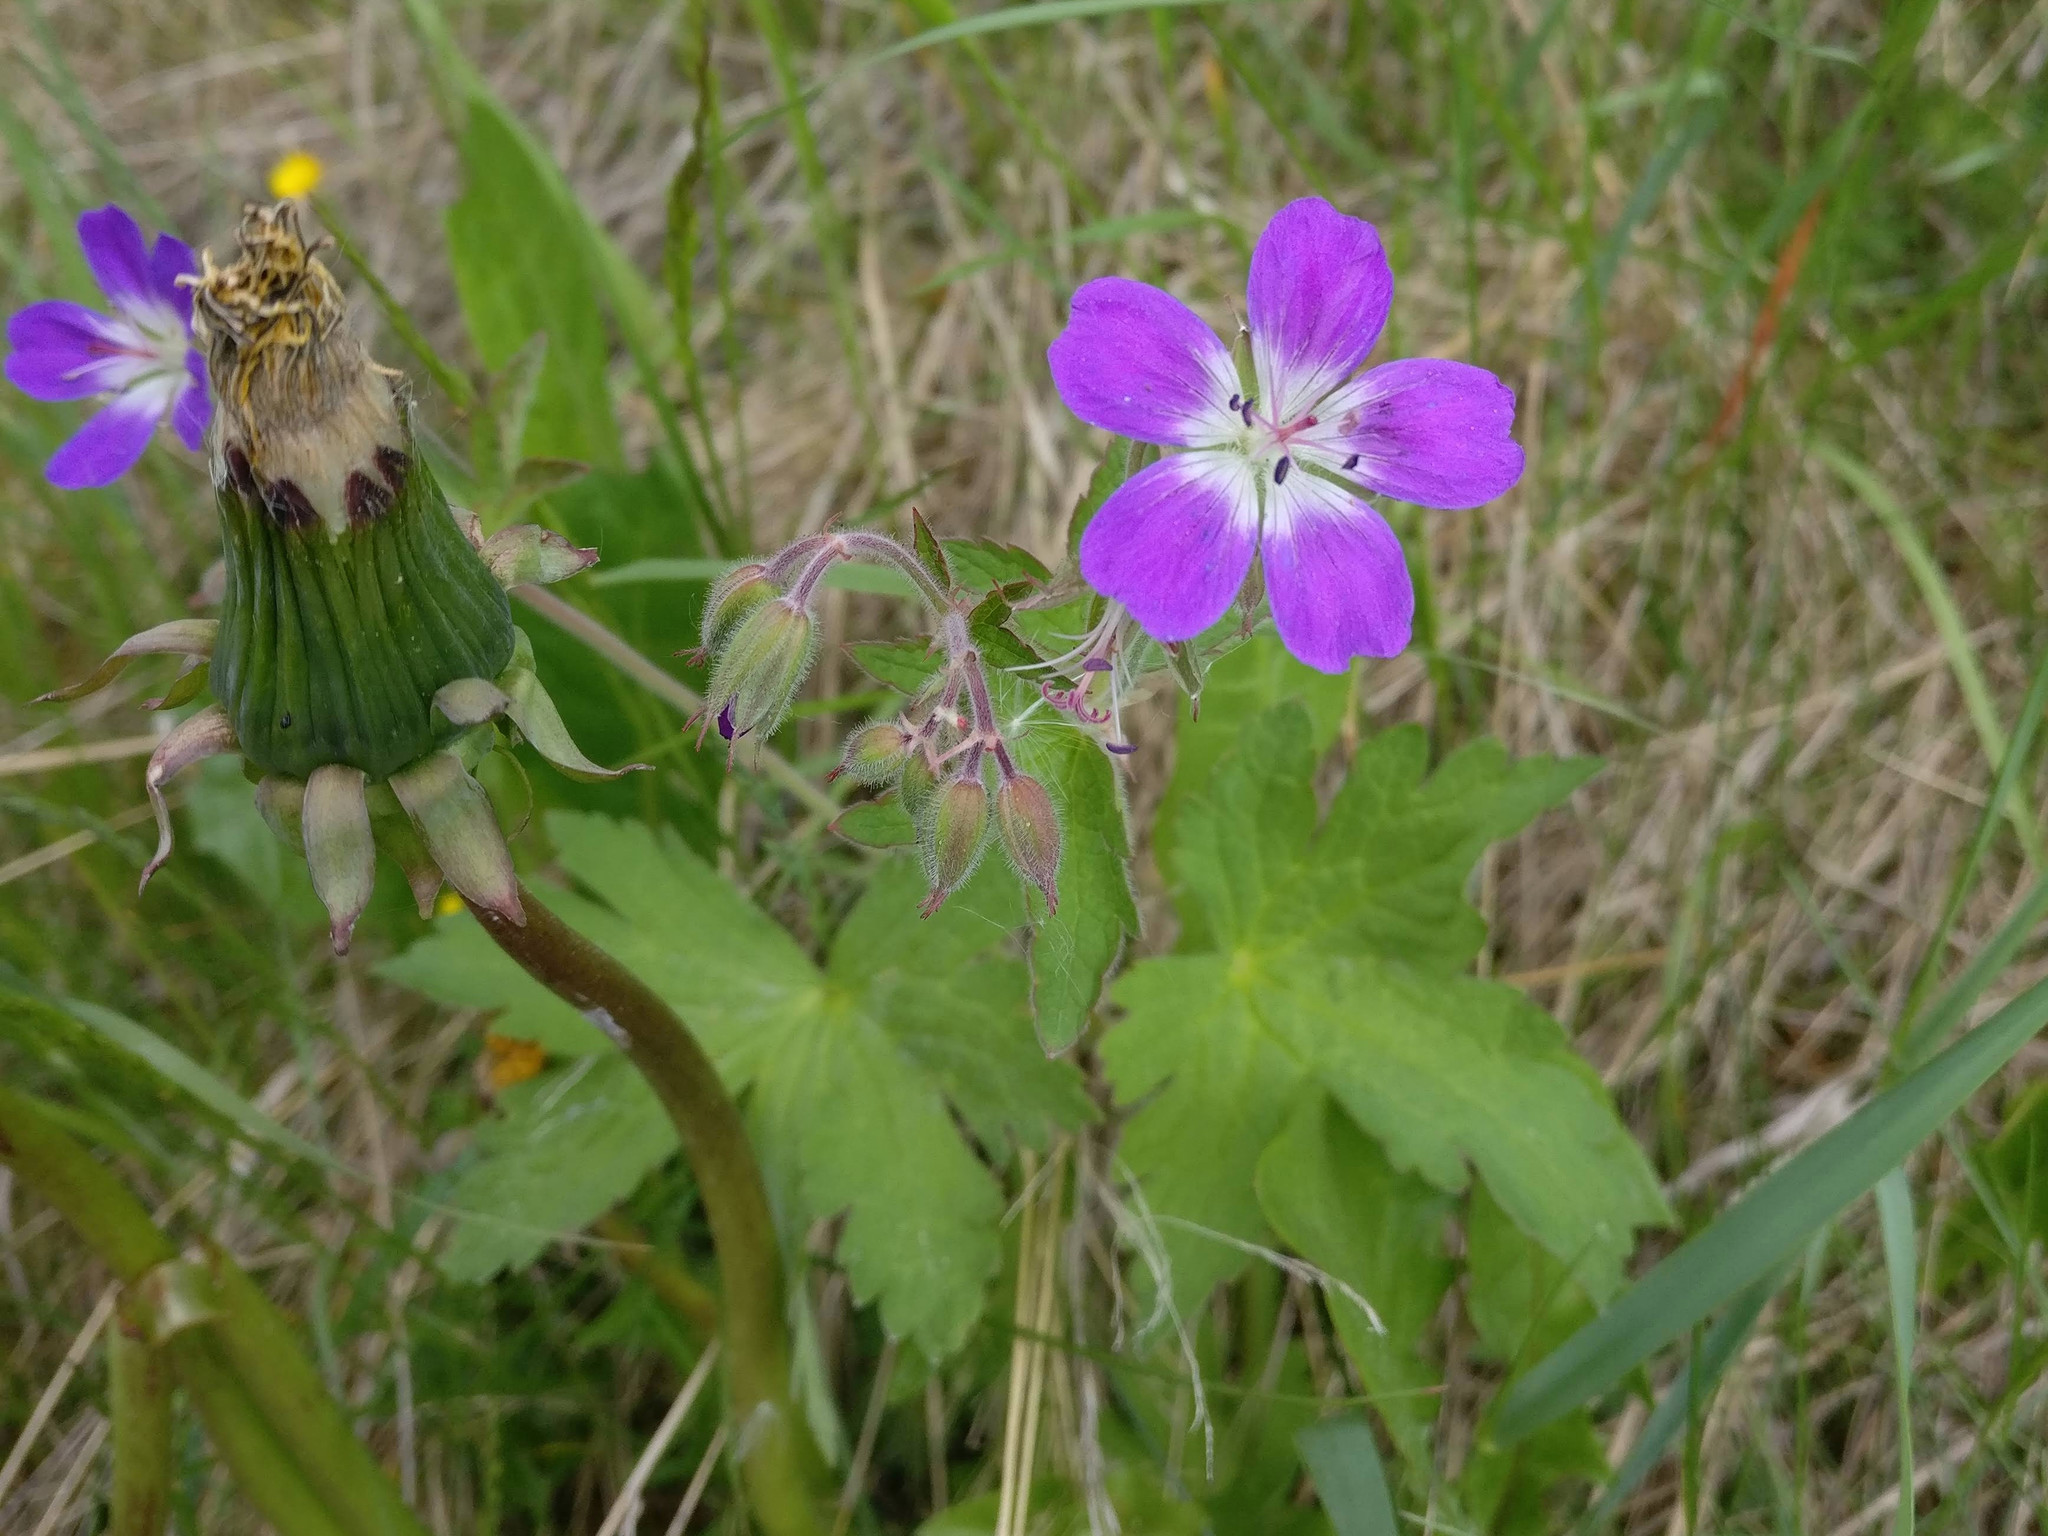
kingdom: Plantae
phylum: Tracheophyta
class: Magnoliopsida
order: Geraniales
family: Geraniaceae
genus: Geranium
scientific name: Geranium sylvaticum
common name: Wood crane's-bill
